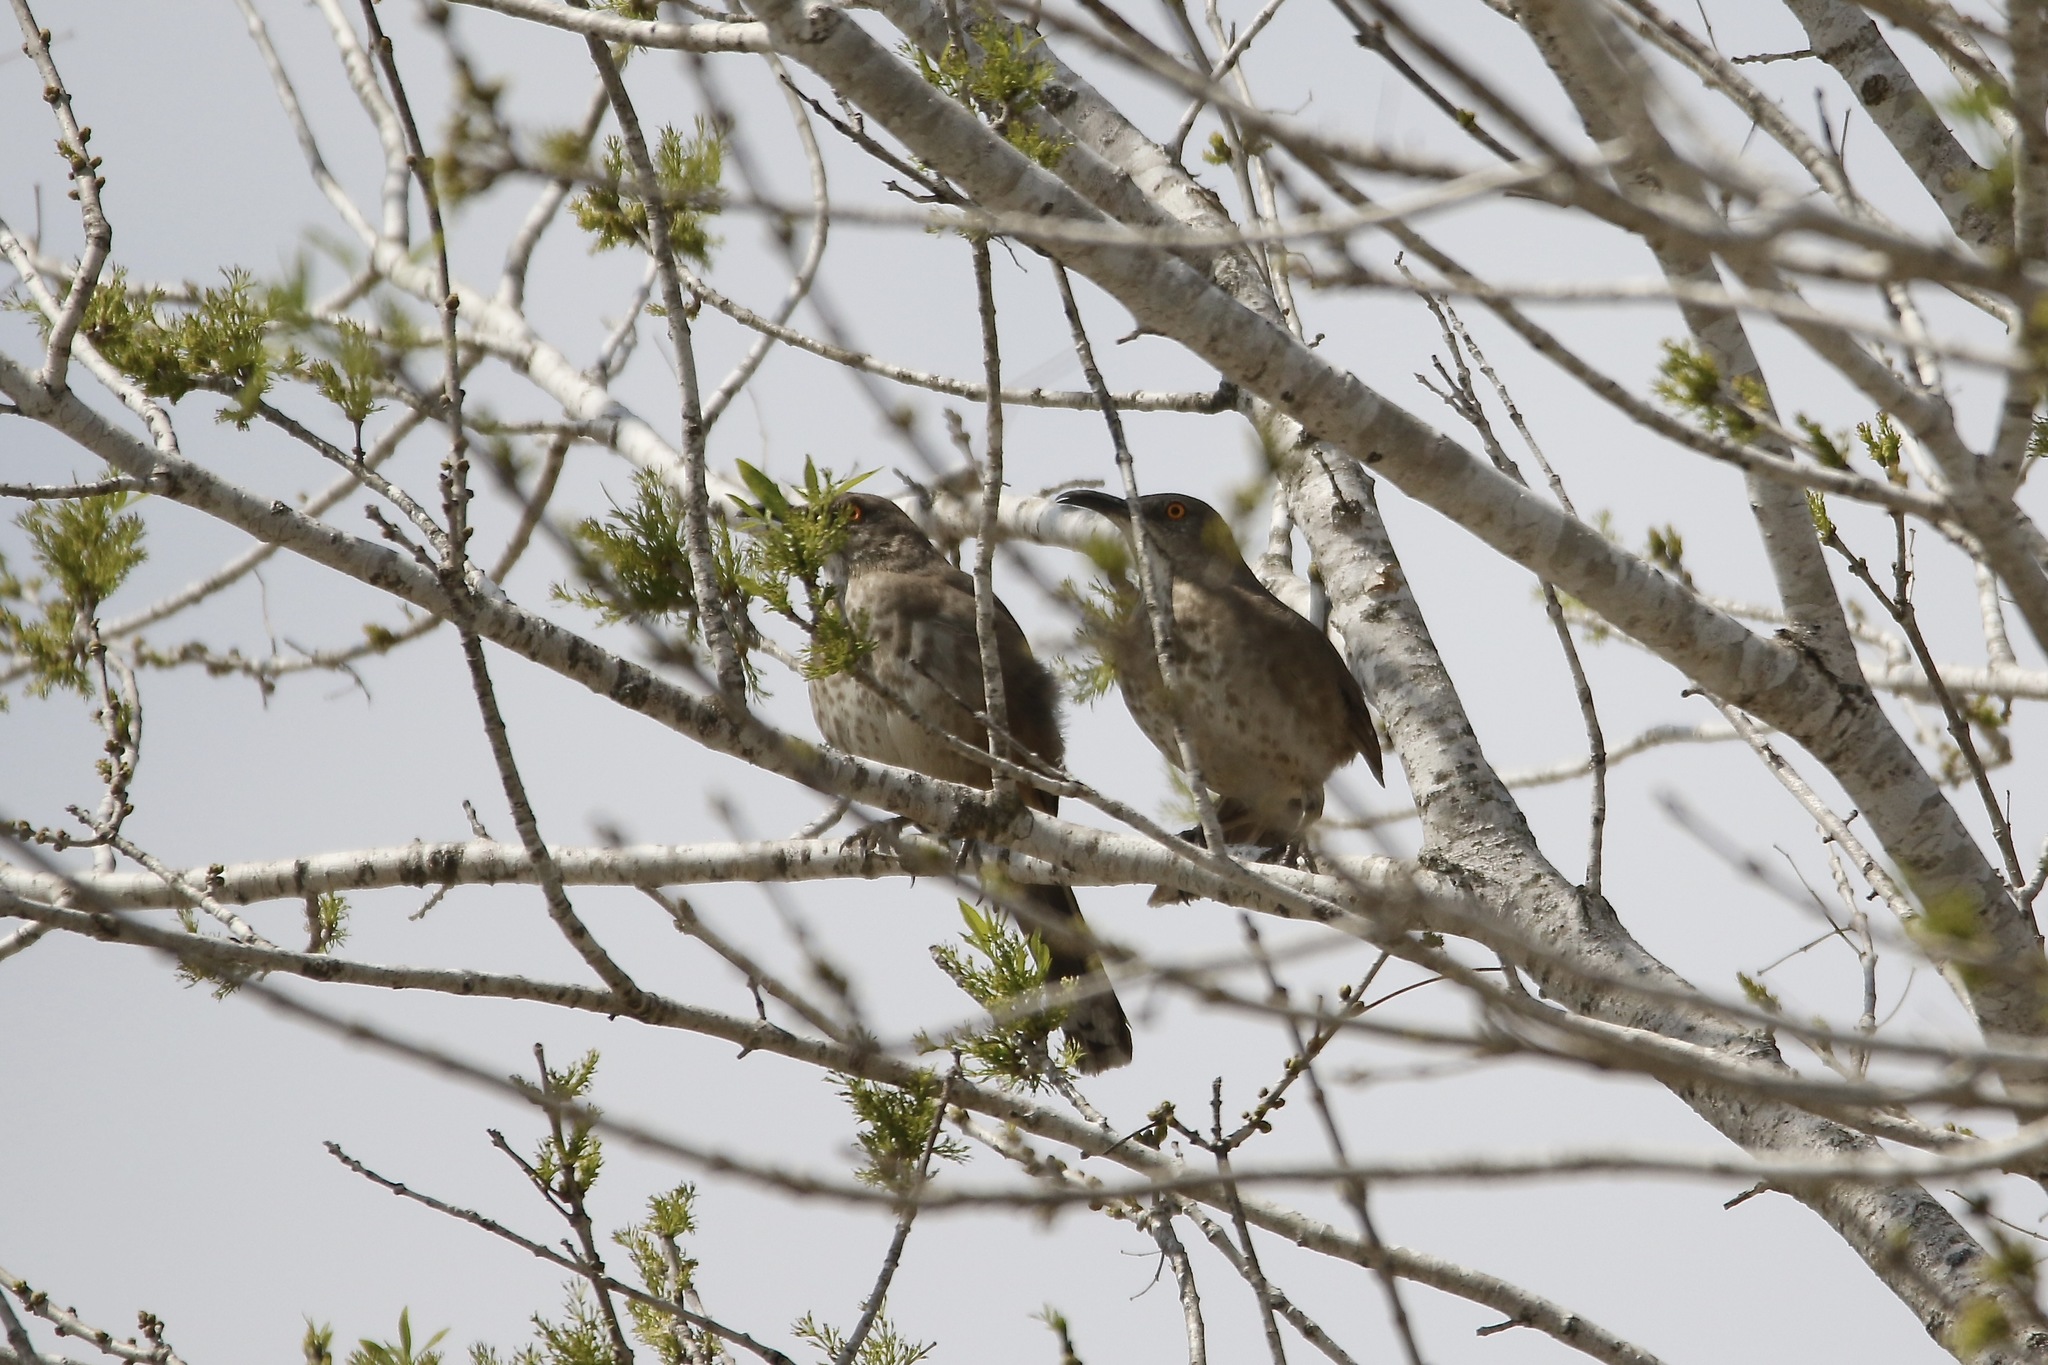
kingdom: Animalia
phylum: Chordata
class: Aves
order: Passeriformes
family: Mimidae
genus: Toxostoma
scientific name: Toxostoma curvirostre
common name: Curve-billed thrasher
